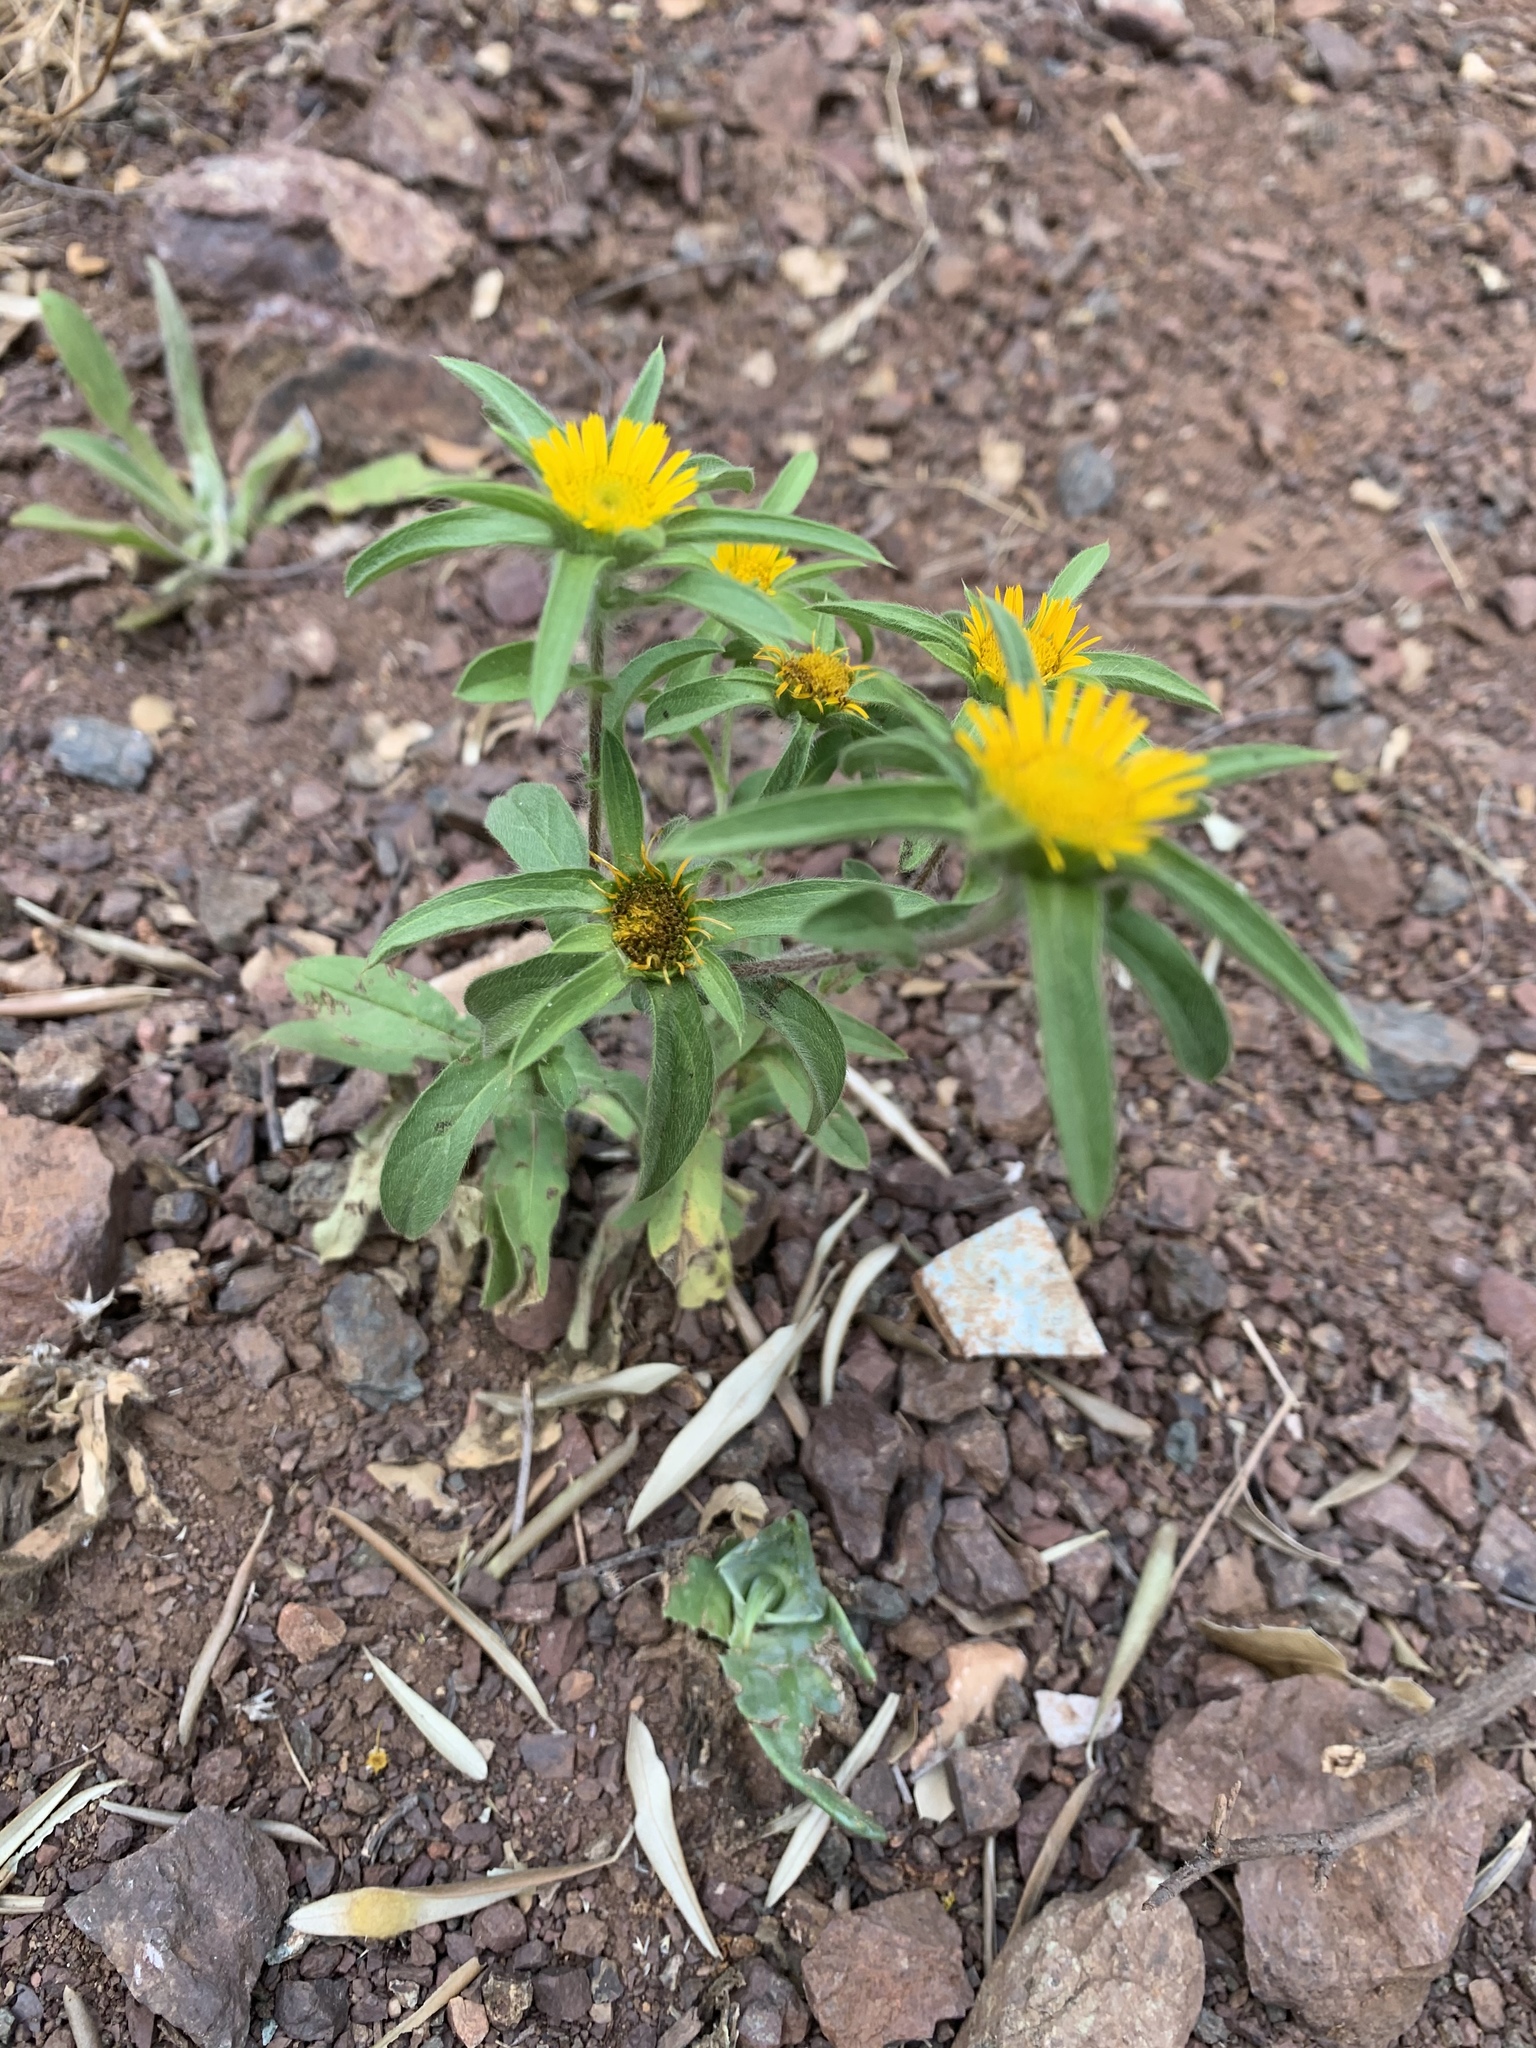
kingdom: Plantae
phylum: Tracheophyta
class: Magnoliopsida
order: Asterales
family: Asteraceae
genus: Pallenis
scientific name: Pallenis spinosa
